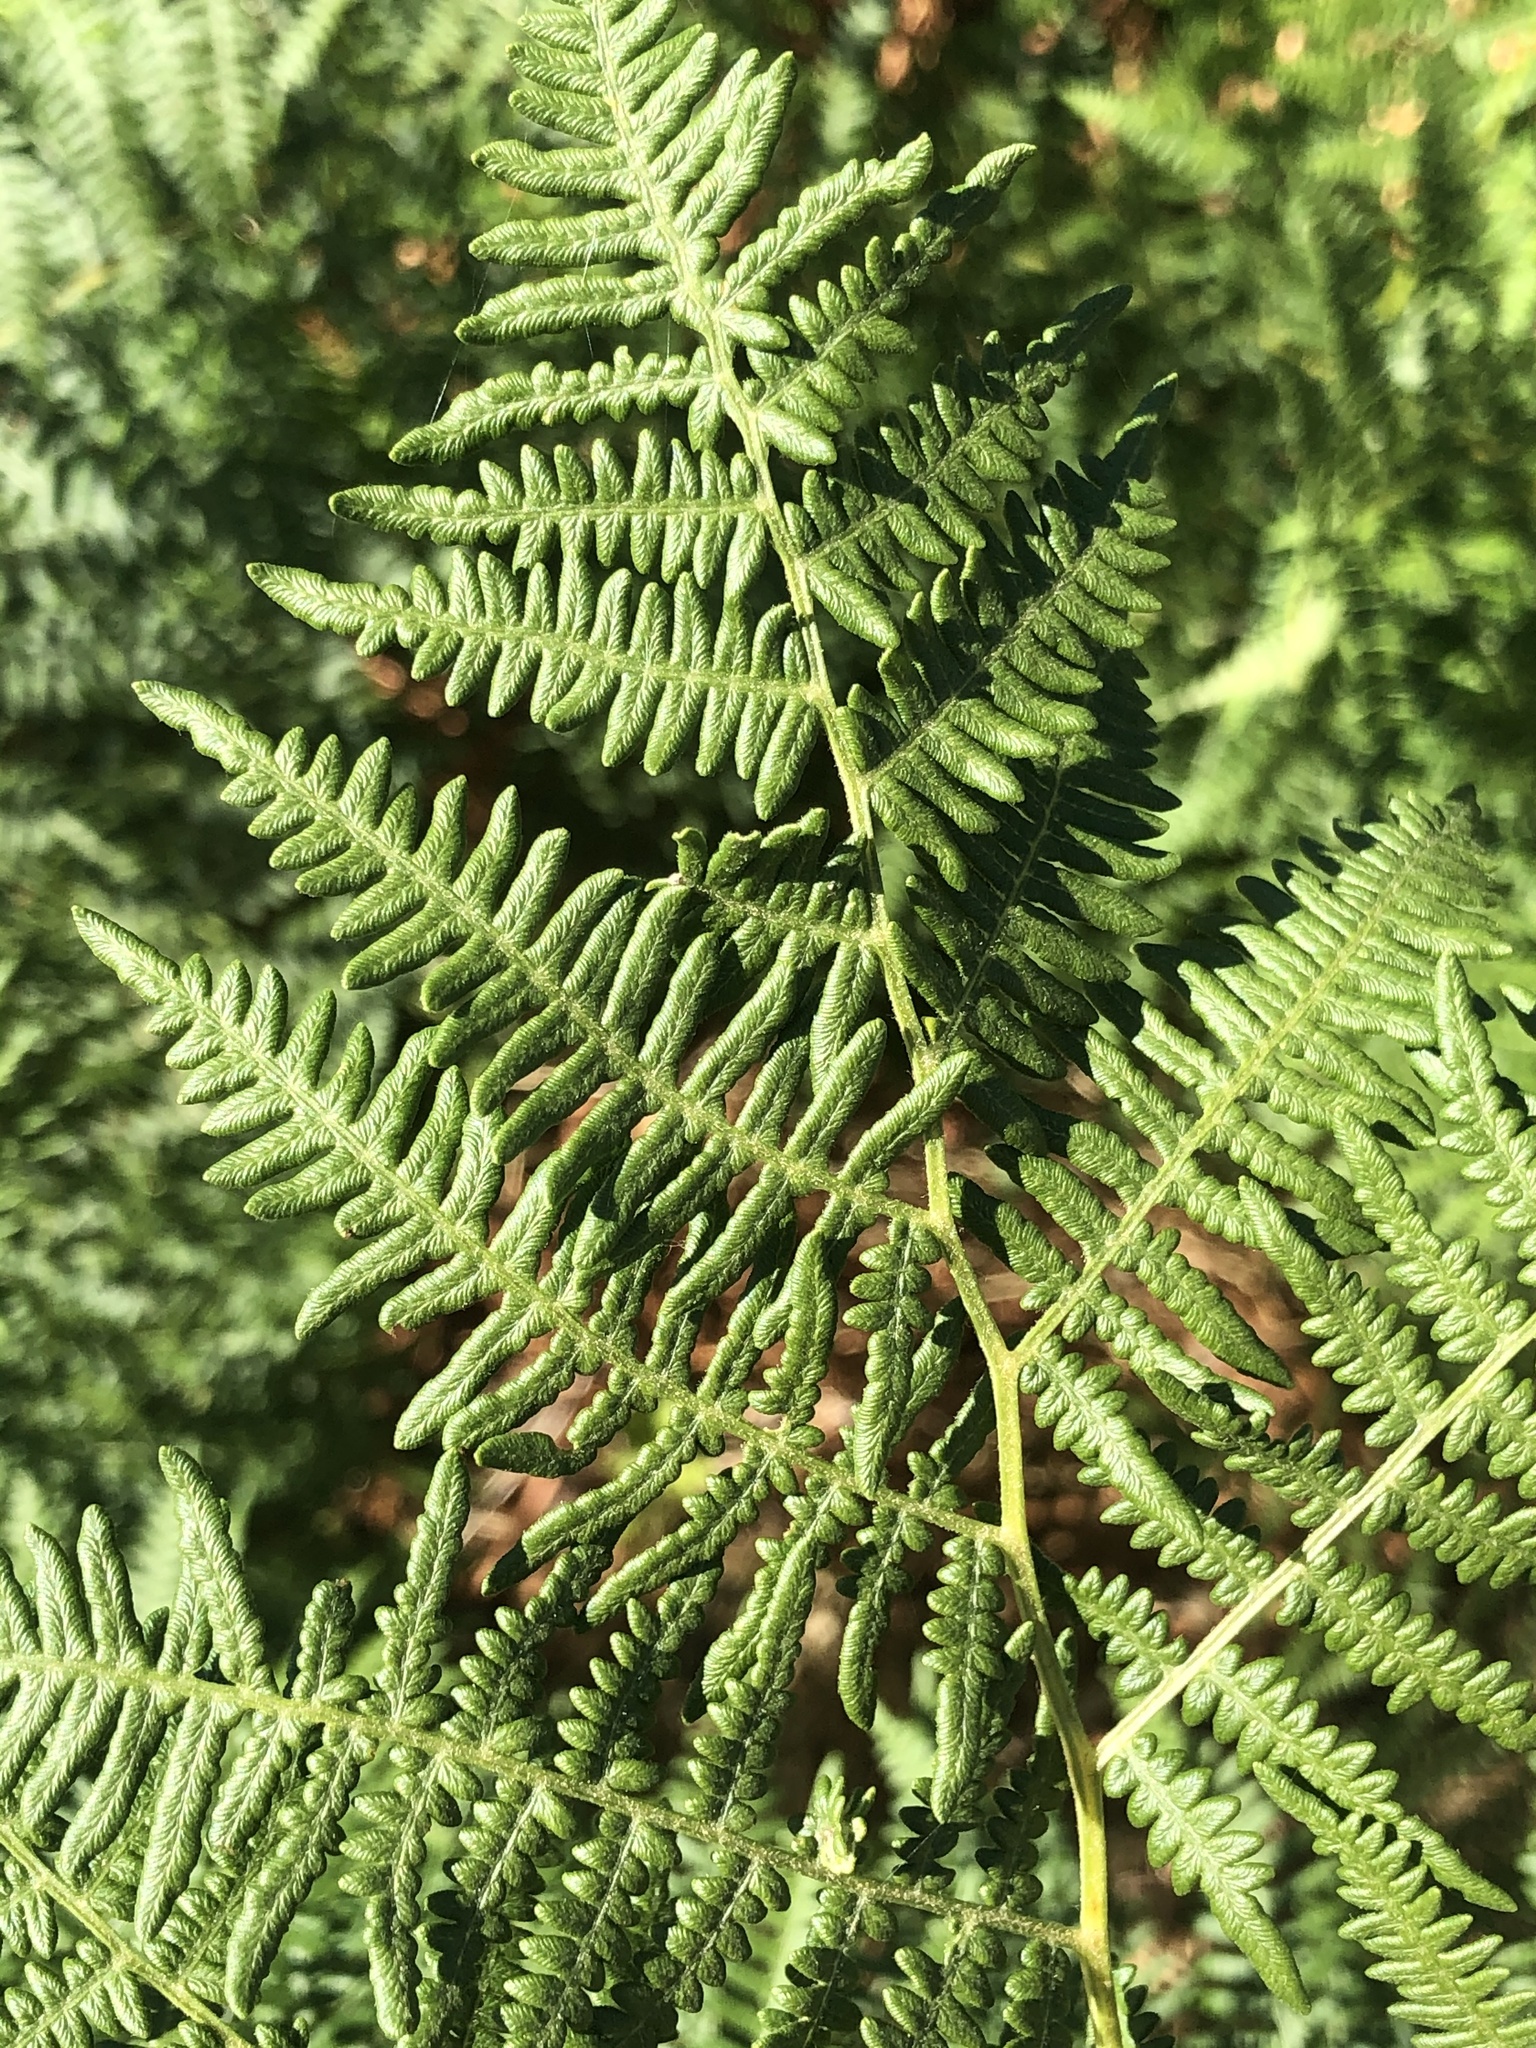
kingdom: Plantae
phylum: Tracheophyta
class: Polypodiopsida
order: Polypodiales
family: Dennstaedtiaceae
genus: Pteridium
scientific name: Pteridium aquilinum
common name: Bracken
